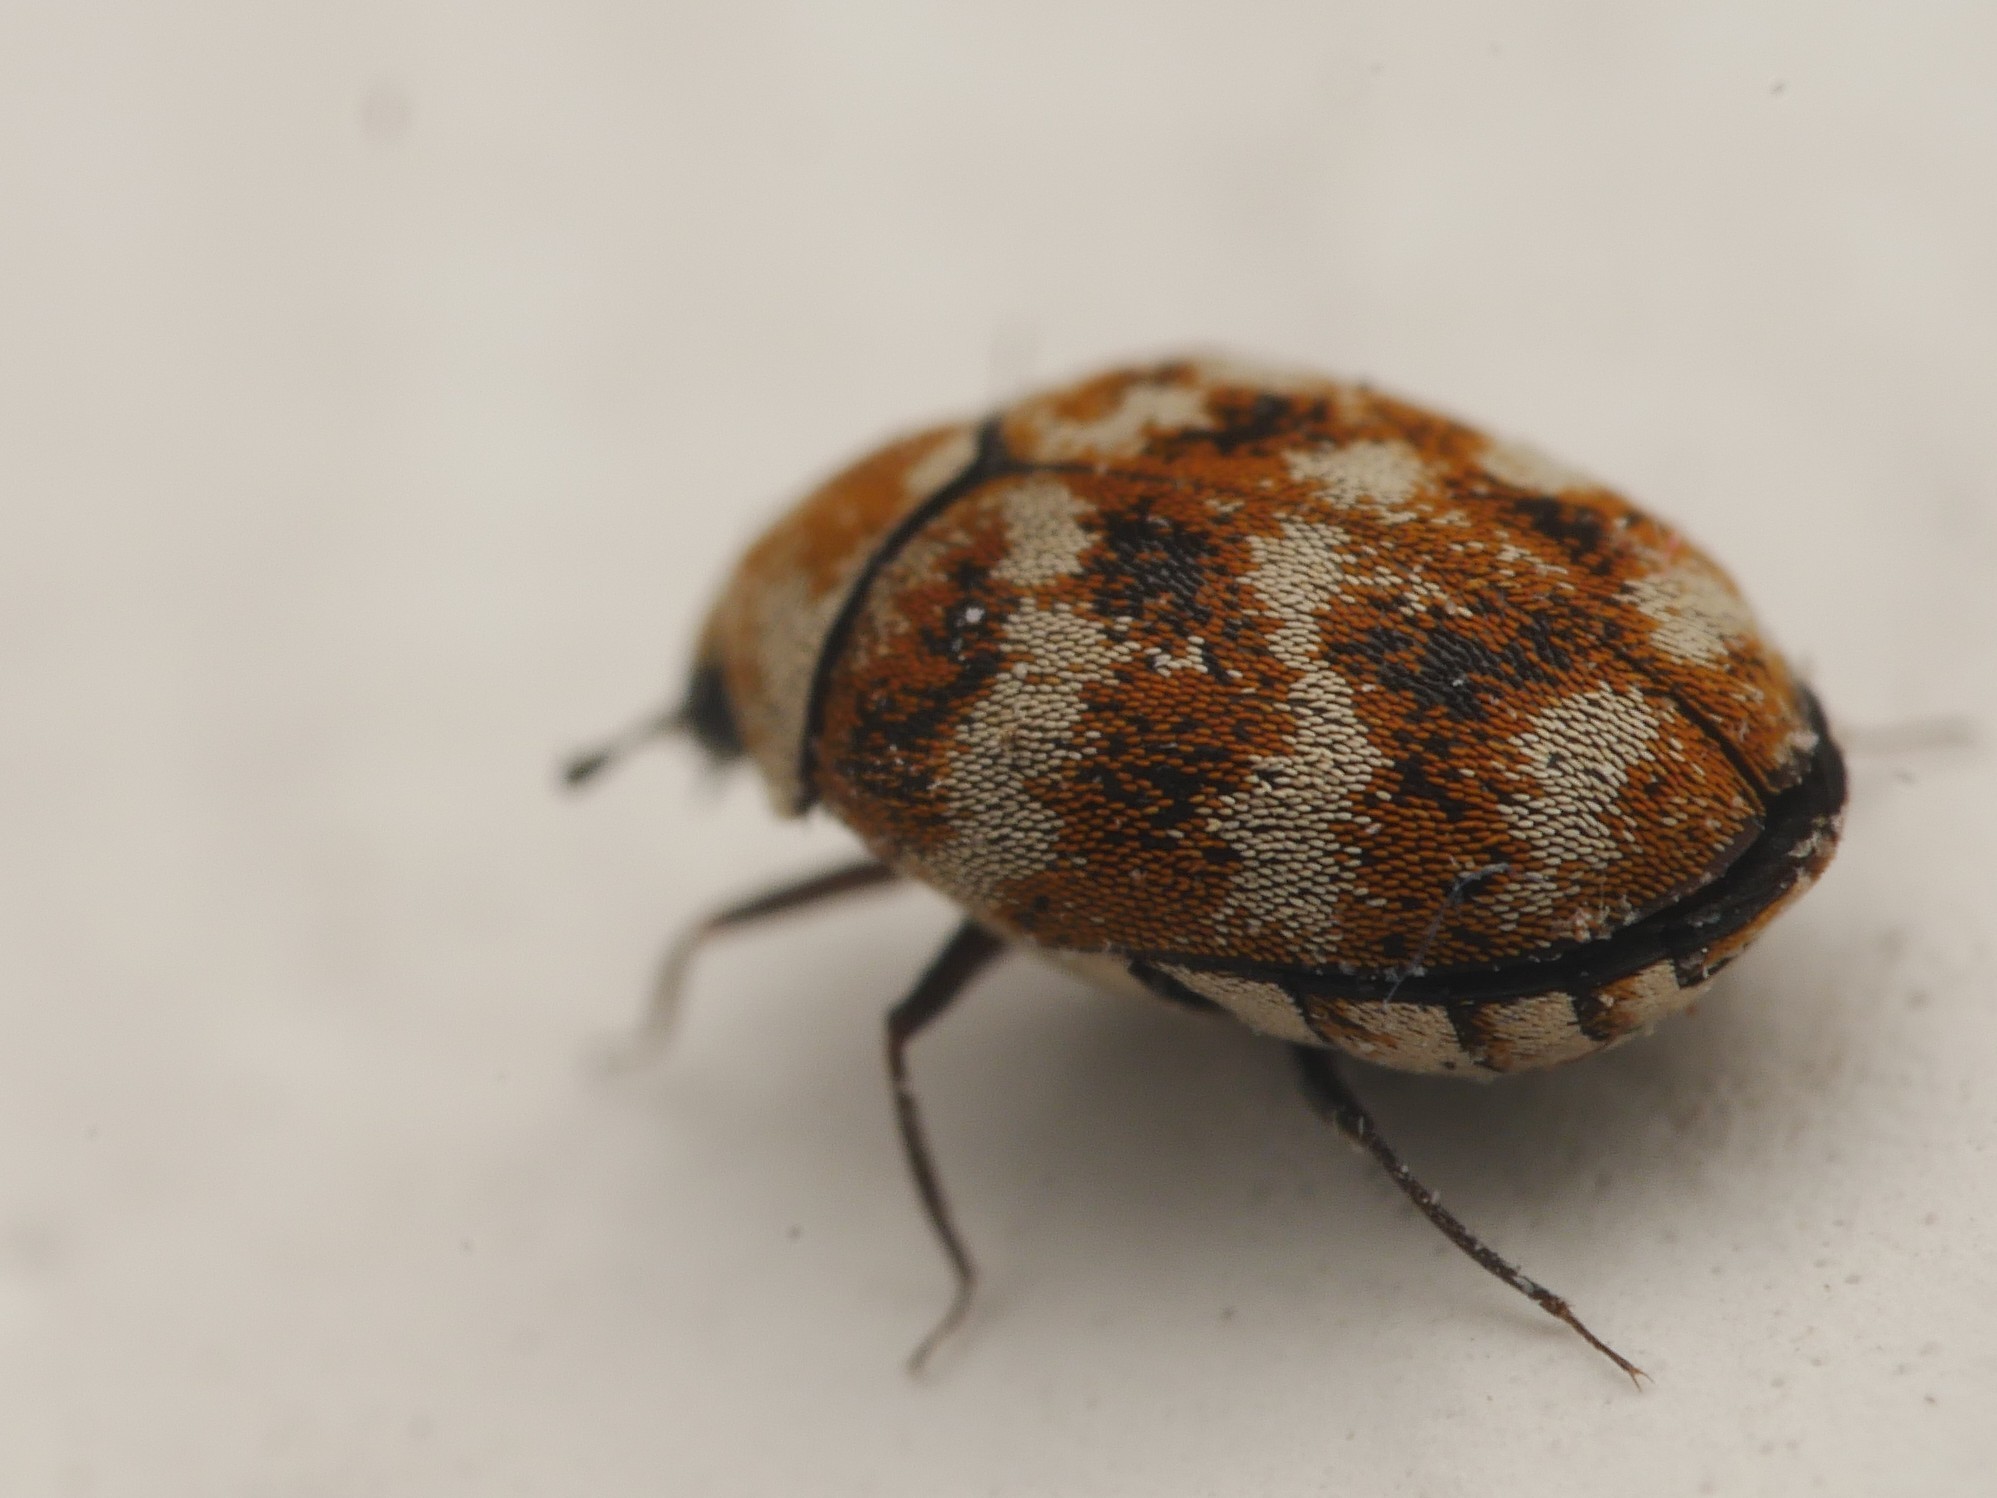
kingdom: Animalia
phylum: Arthropoda
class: Insecta
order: Coleoptera
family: Dermestidae
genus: Anthrenus
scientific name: Anthrenus verbasci
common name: Varied carpet beetle
